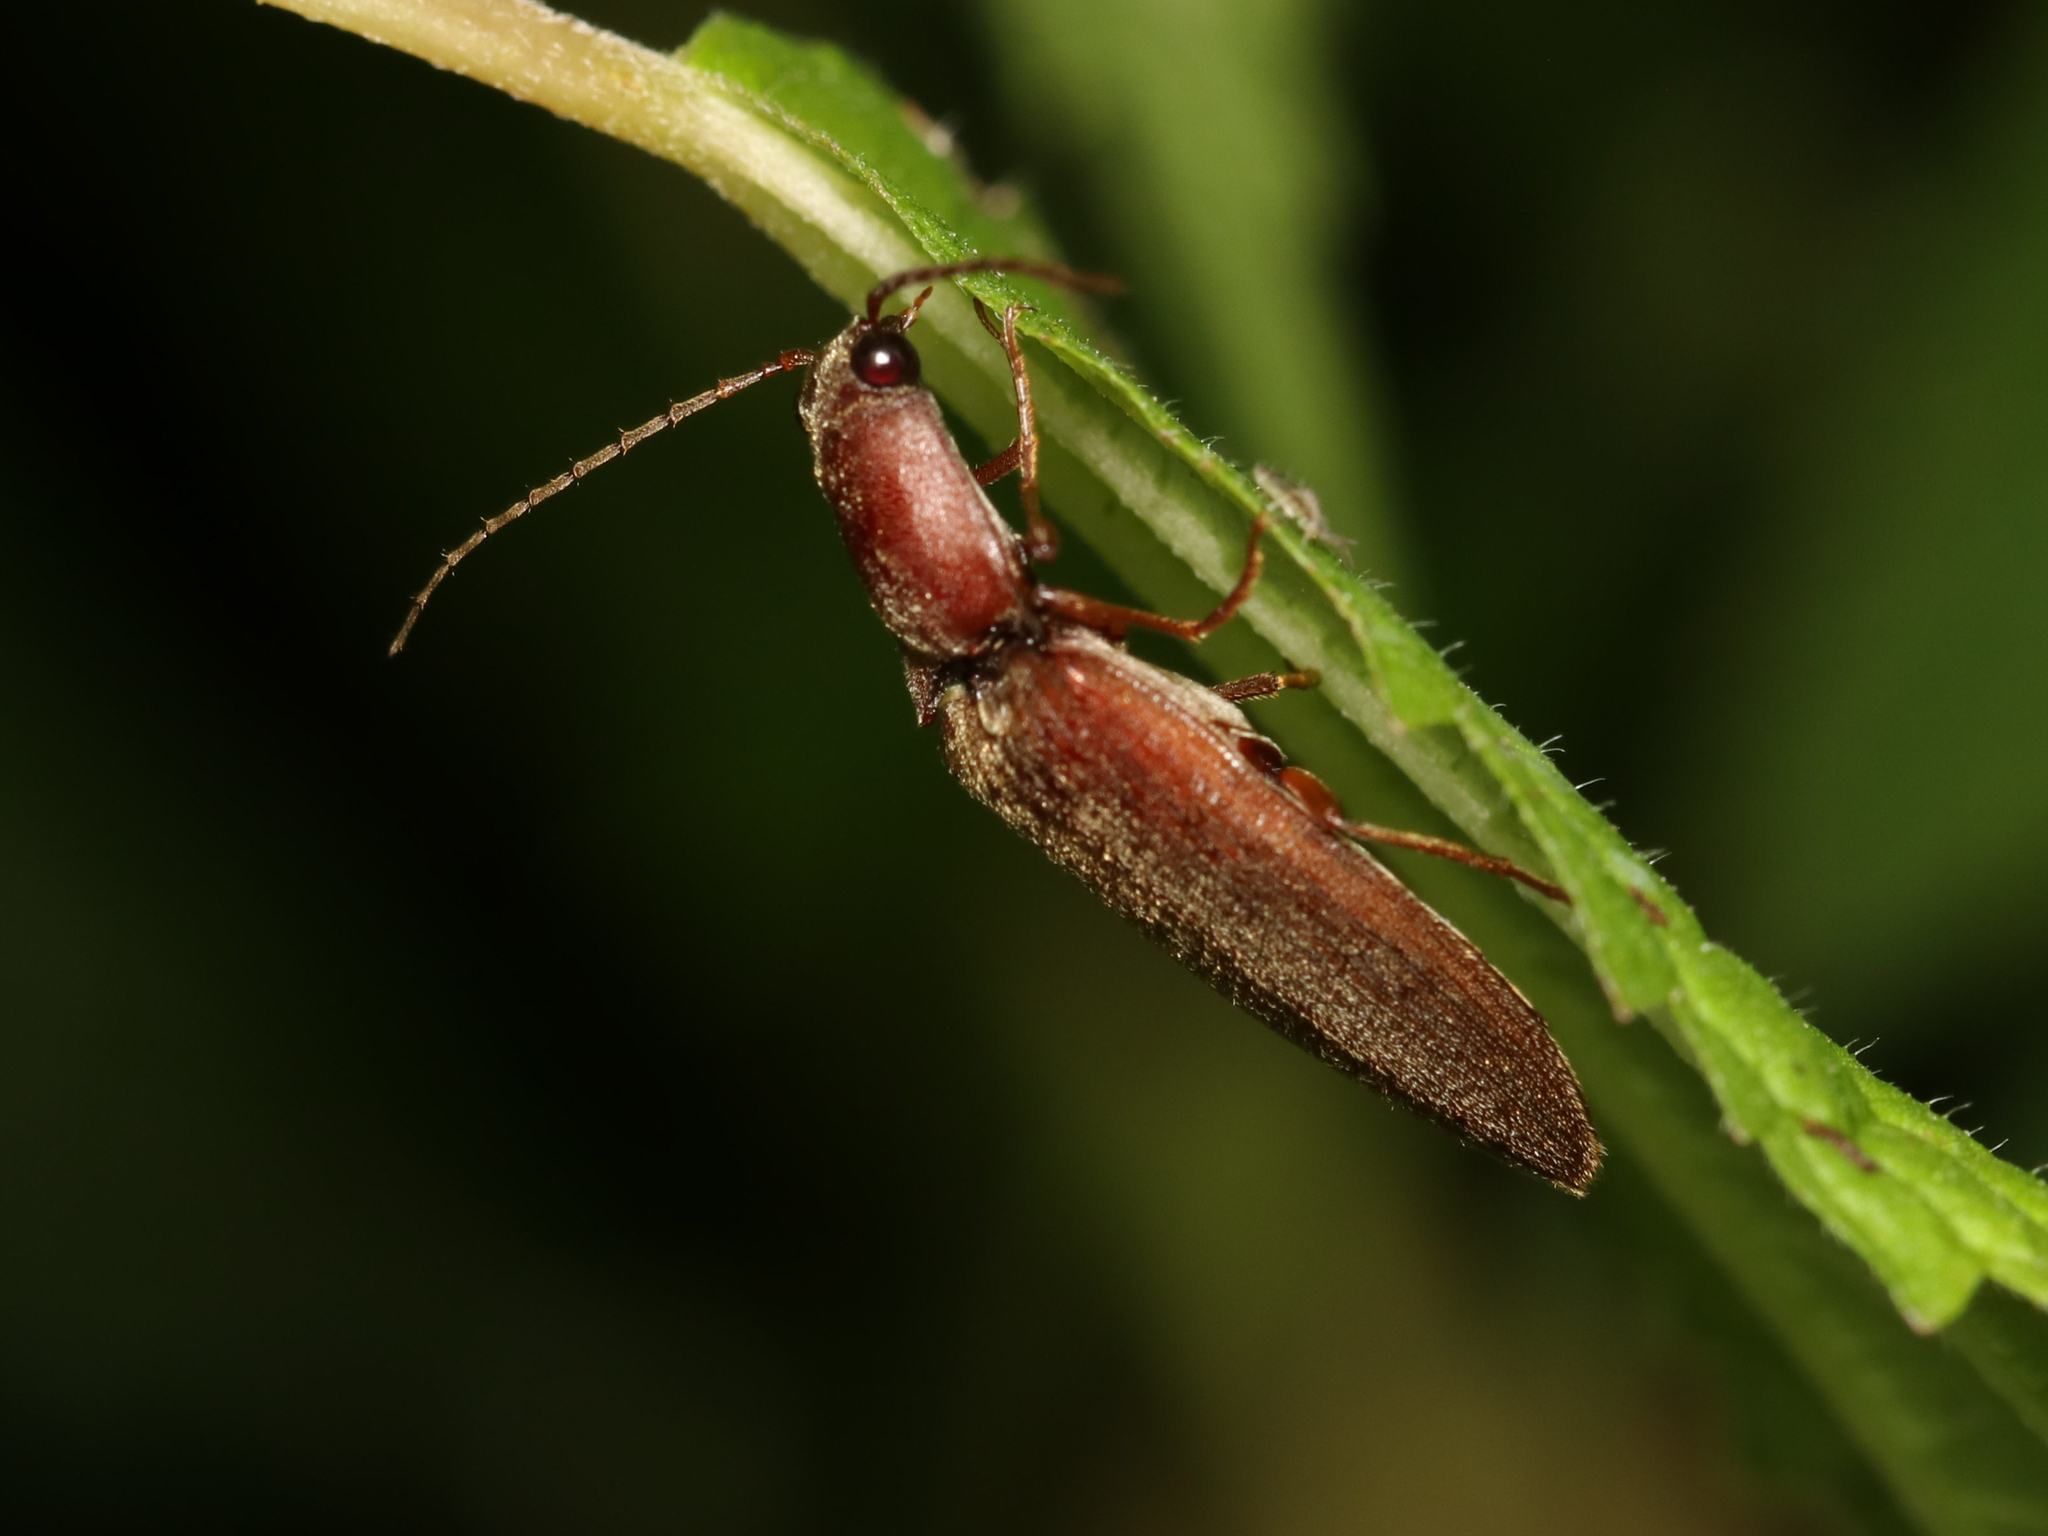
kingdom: Animalia
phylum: Arthropoda
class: Insecta
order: Coleoptera
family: Elateridae
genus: Proludius
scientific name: Proludius pyrros
